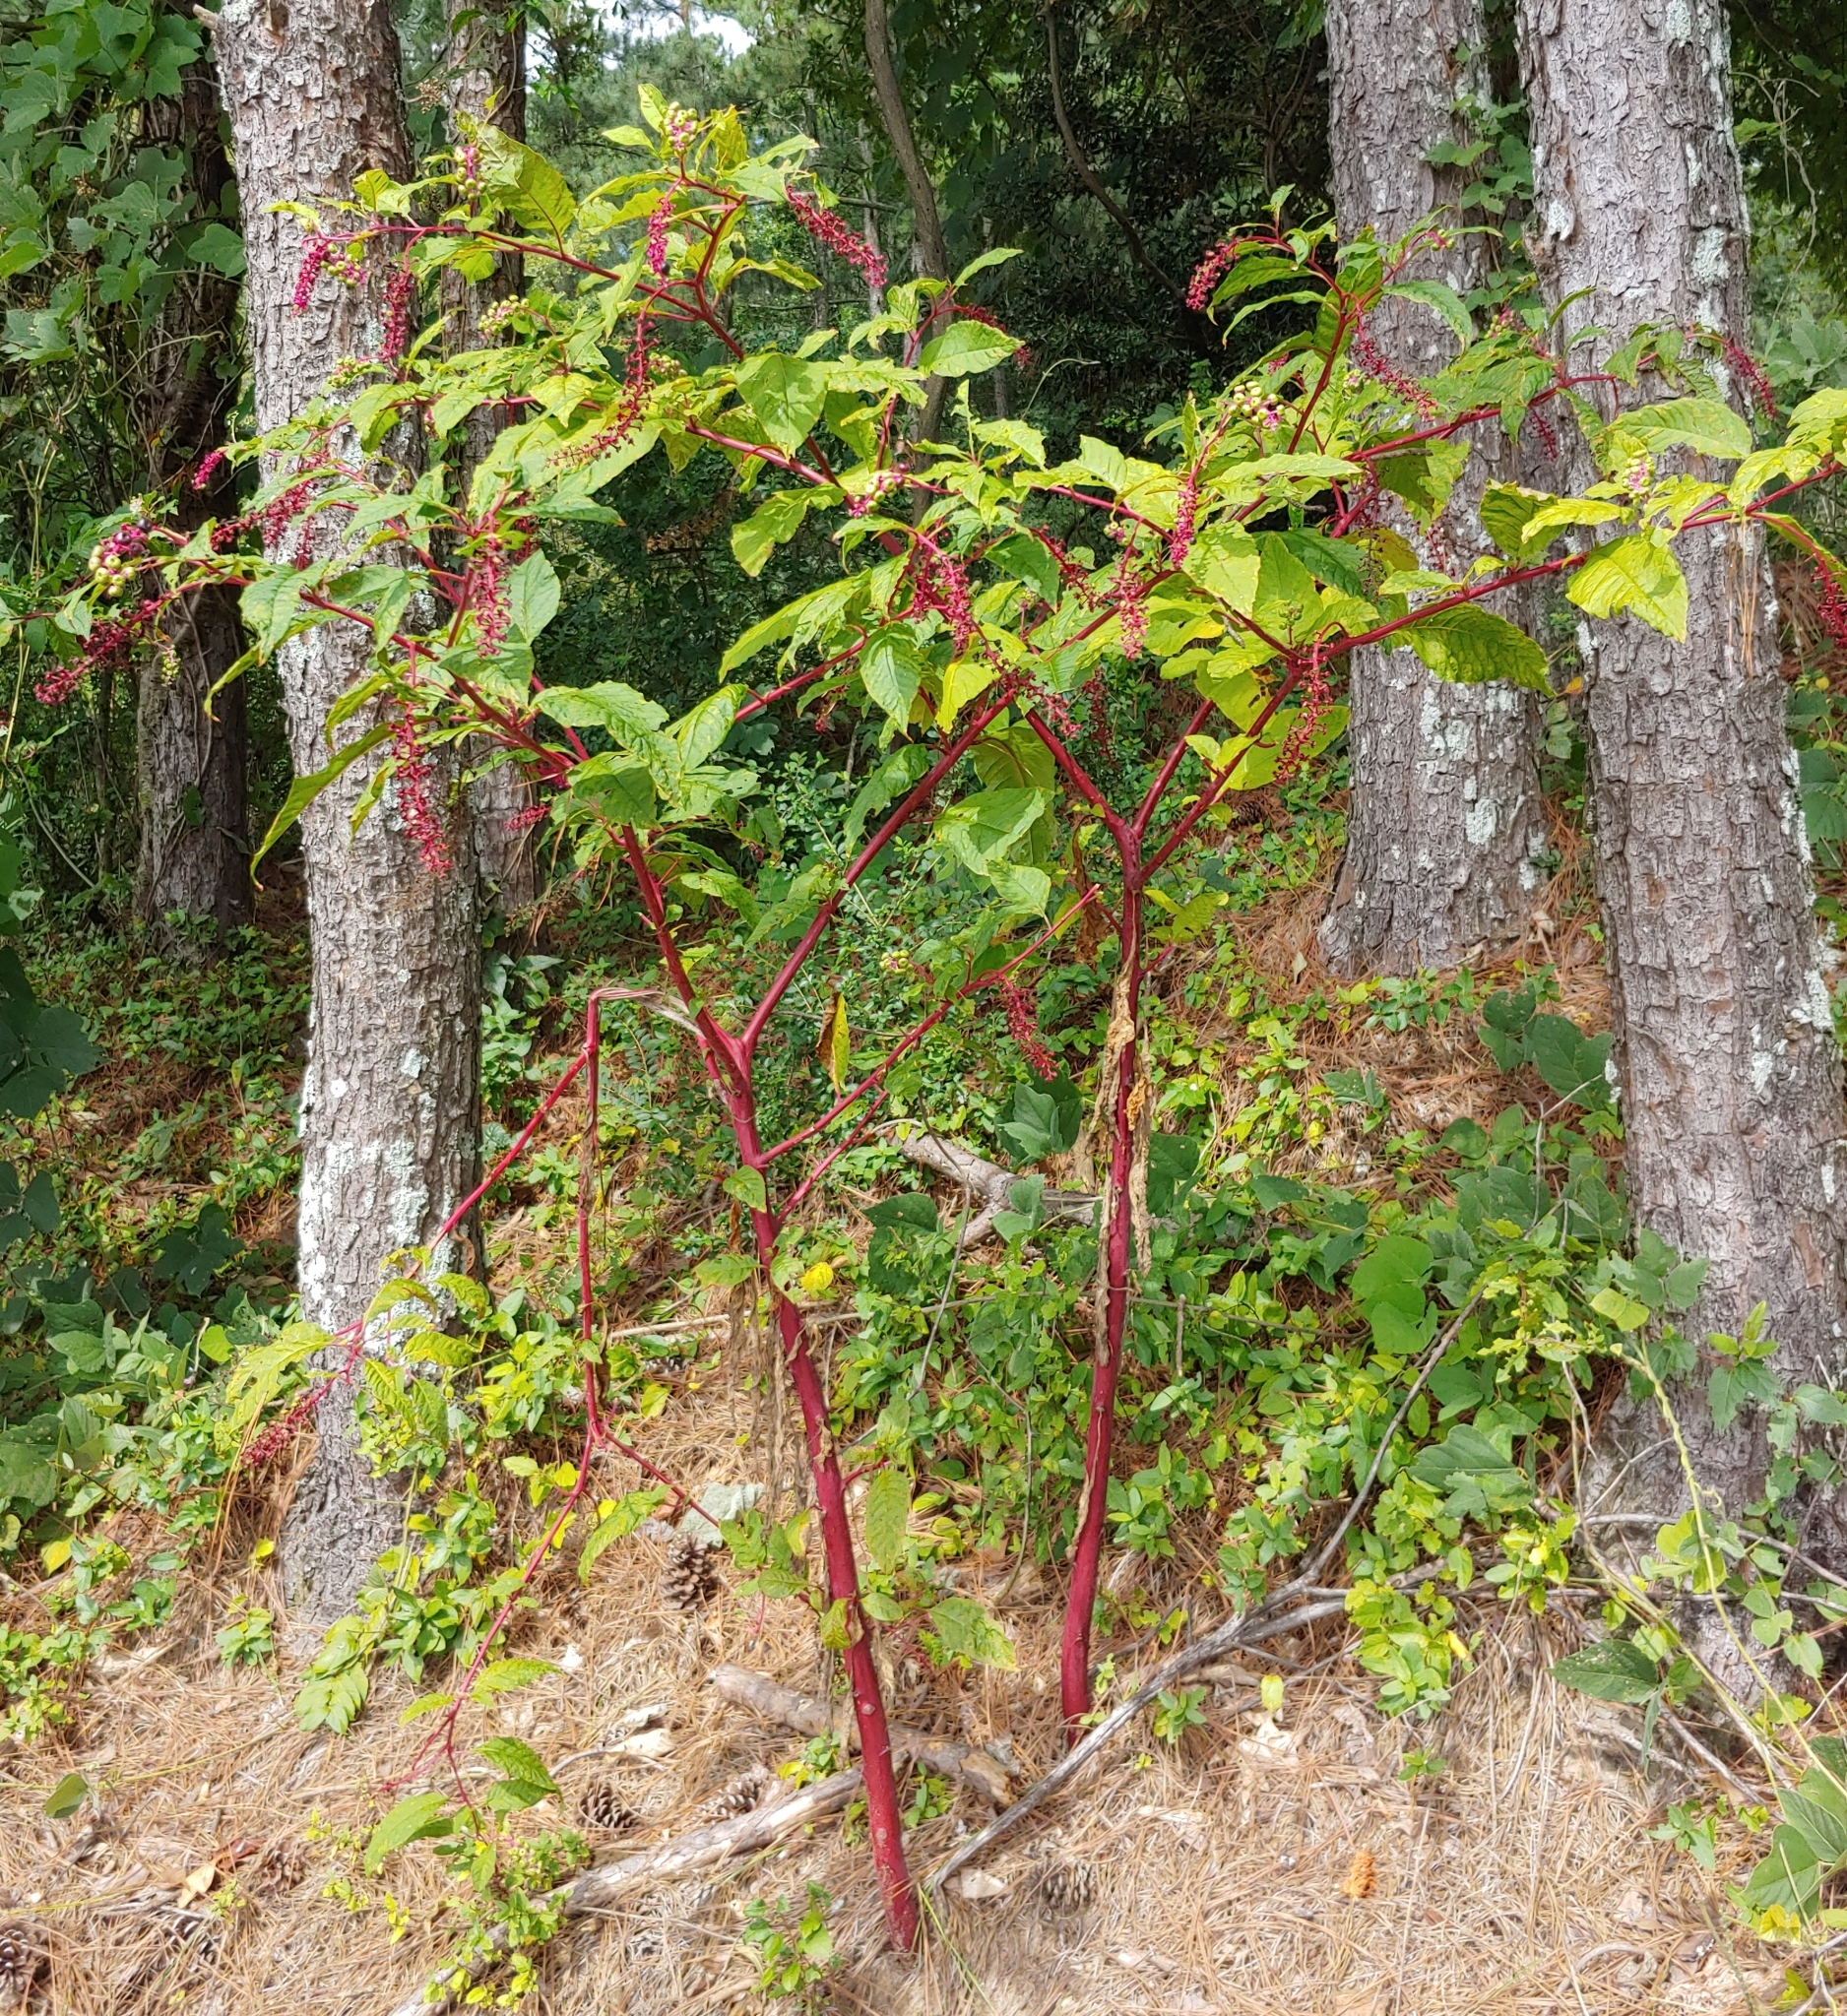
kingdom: Plantae
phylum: Tracheophyta
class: Magnoliopsida
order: Caryophyllales
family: Phytolaccaceae
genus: Phytolacca
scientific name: Phytolacca americana
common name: American pokeweed
